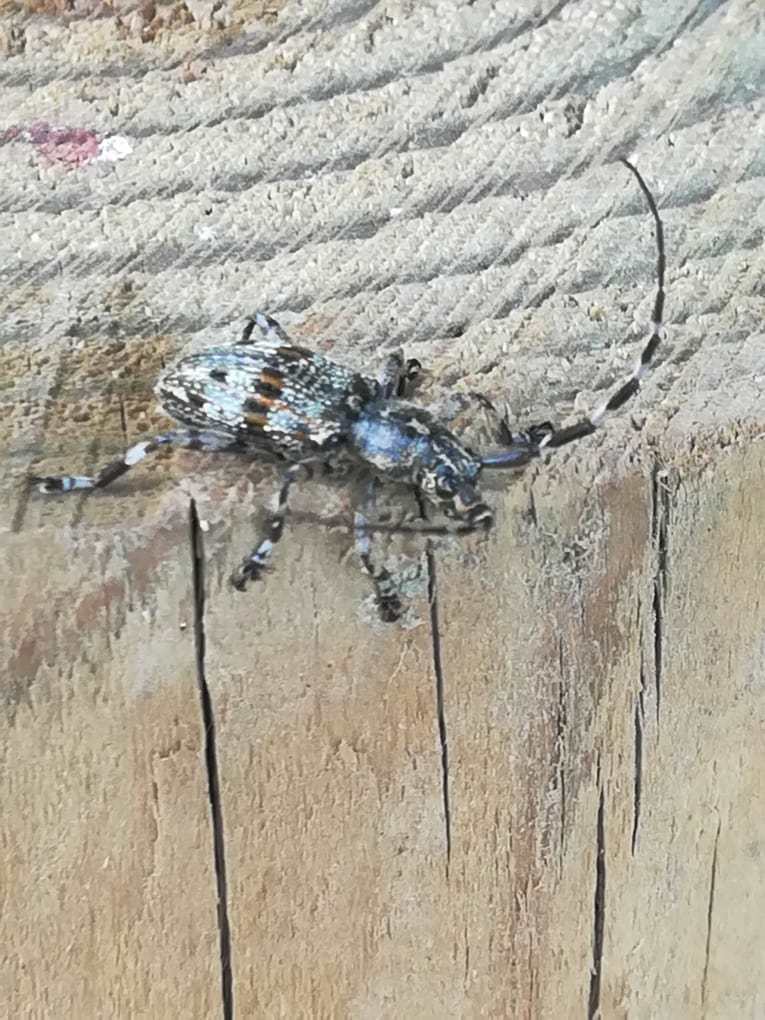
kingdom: Animalia
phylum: Arthropoda
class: Insecta
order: Coleoptera
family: Cerambycidae
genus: Hexatricha
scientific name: Hexatricha pulverulenta
